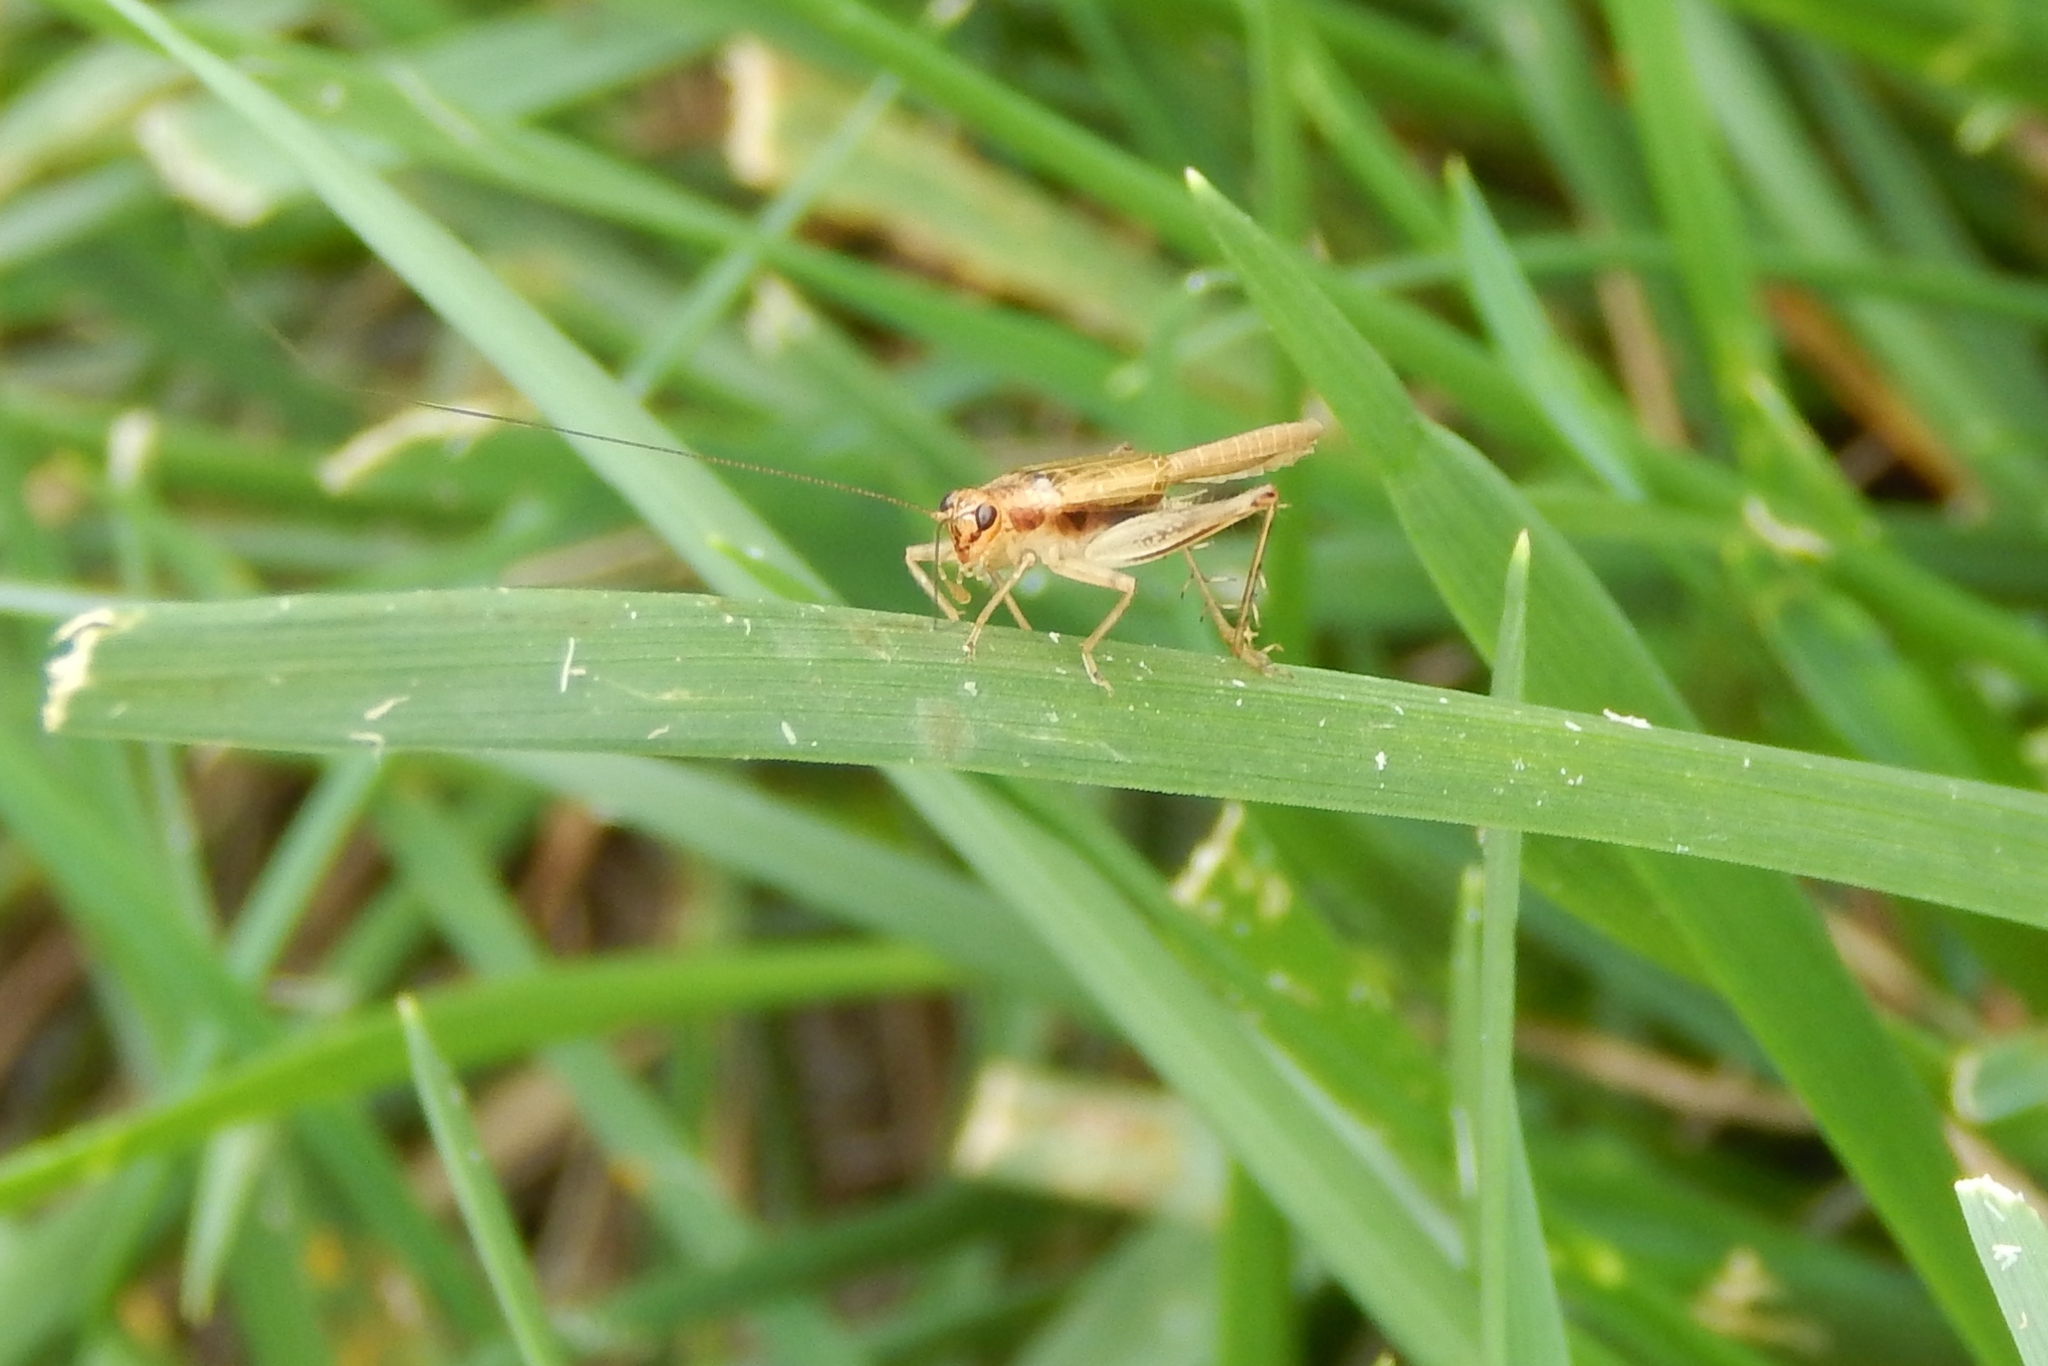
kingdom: Animalia
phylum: Arthropoda
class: Insecta
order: Orthoptera
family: Trigonidiidae
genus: Anaxipha
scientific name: Anaxipha
